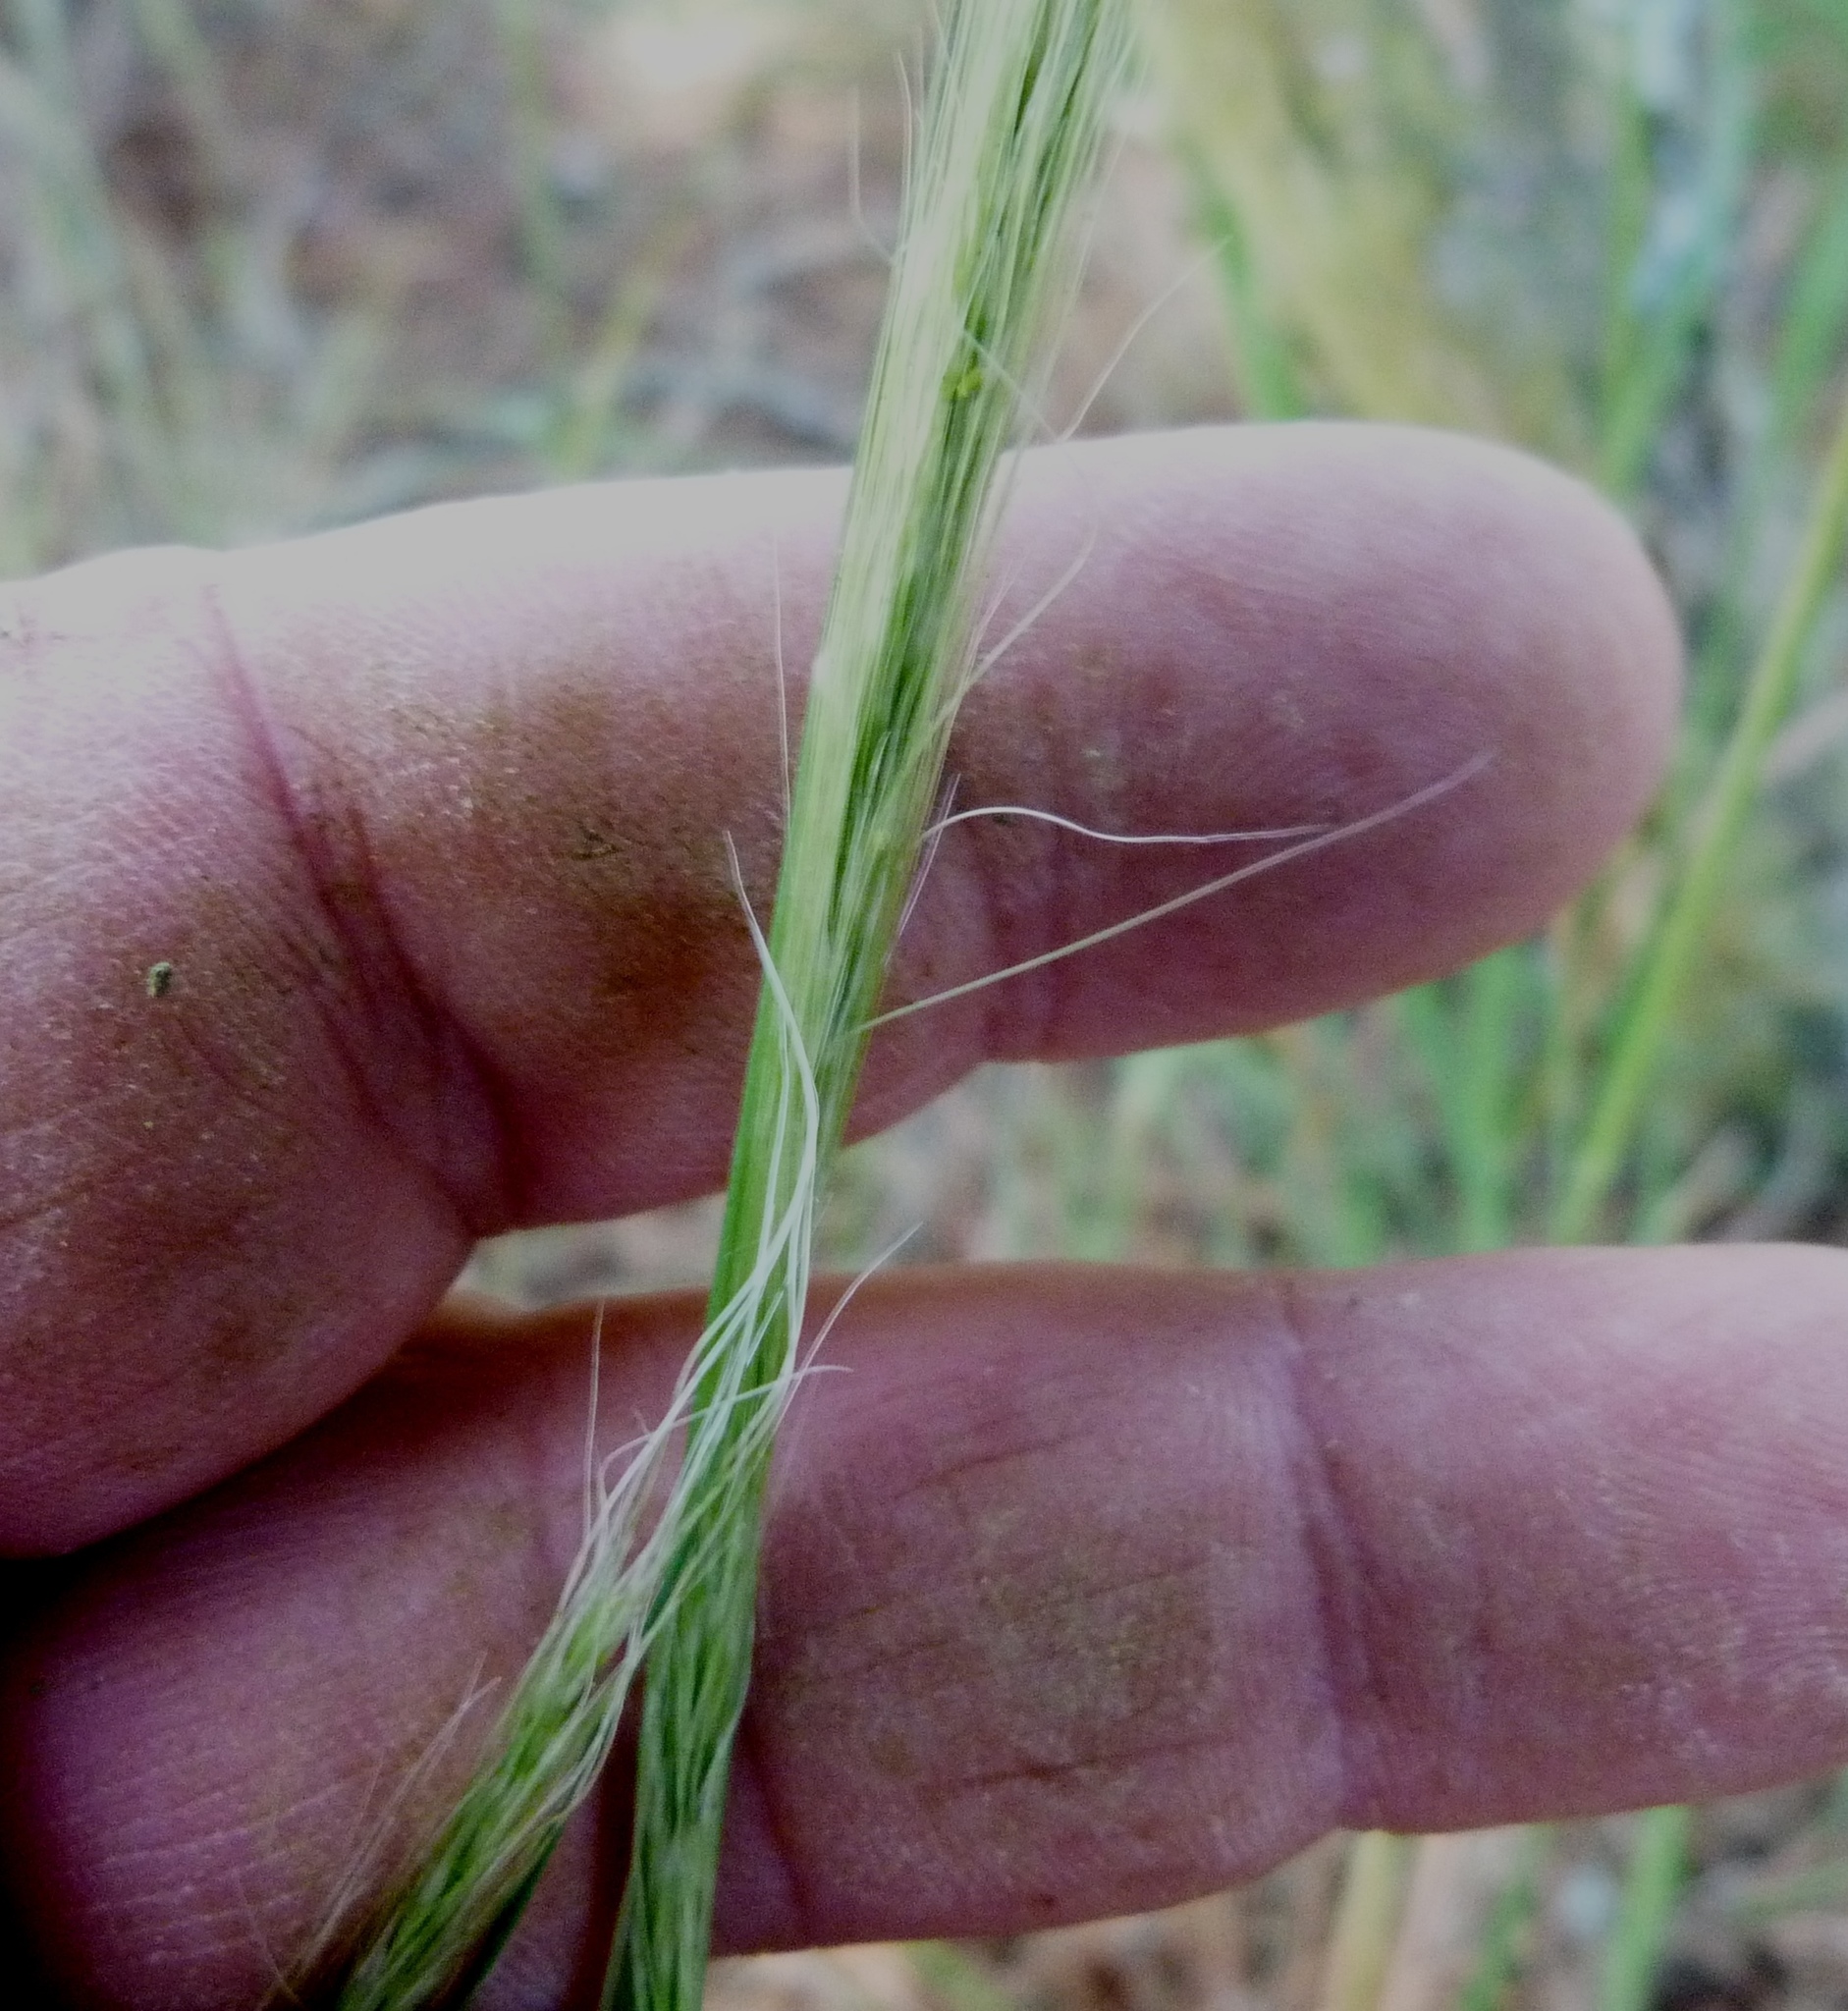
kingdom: Plantae
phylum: Tracheophyta
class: Liliopsida
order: Poales
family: Poaceae
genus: Dichelachne
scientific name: Dichelachne crinita
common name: Clovenfoot plumegrass
